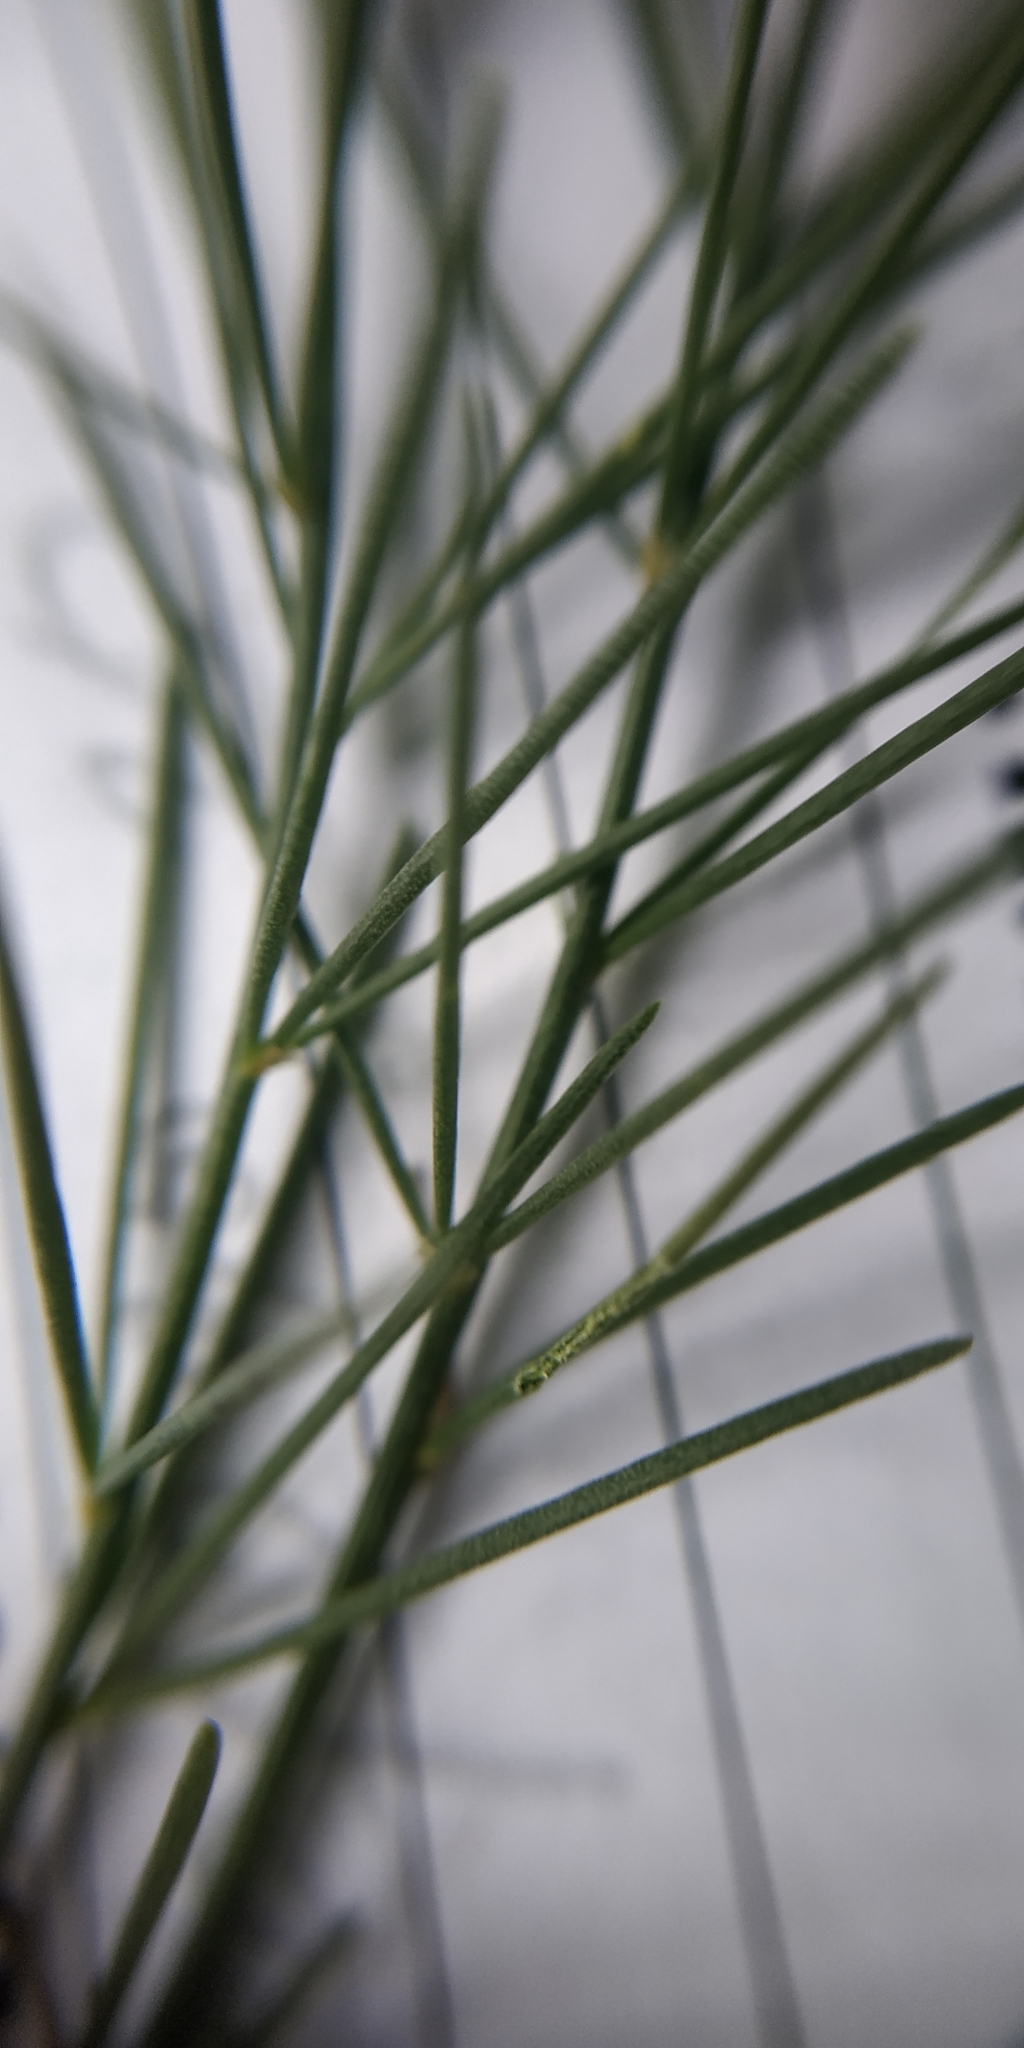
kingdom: Plantae
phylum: Tracheophyta
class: Liliopsida
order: Asparagales
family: Asparagaceae
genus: Asparagus
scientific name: Asparagus officinalis
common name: Garden asparagus
